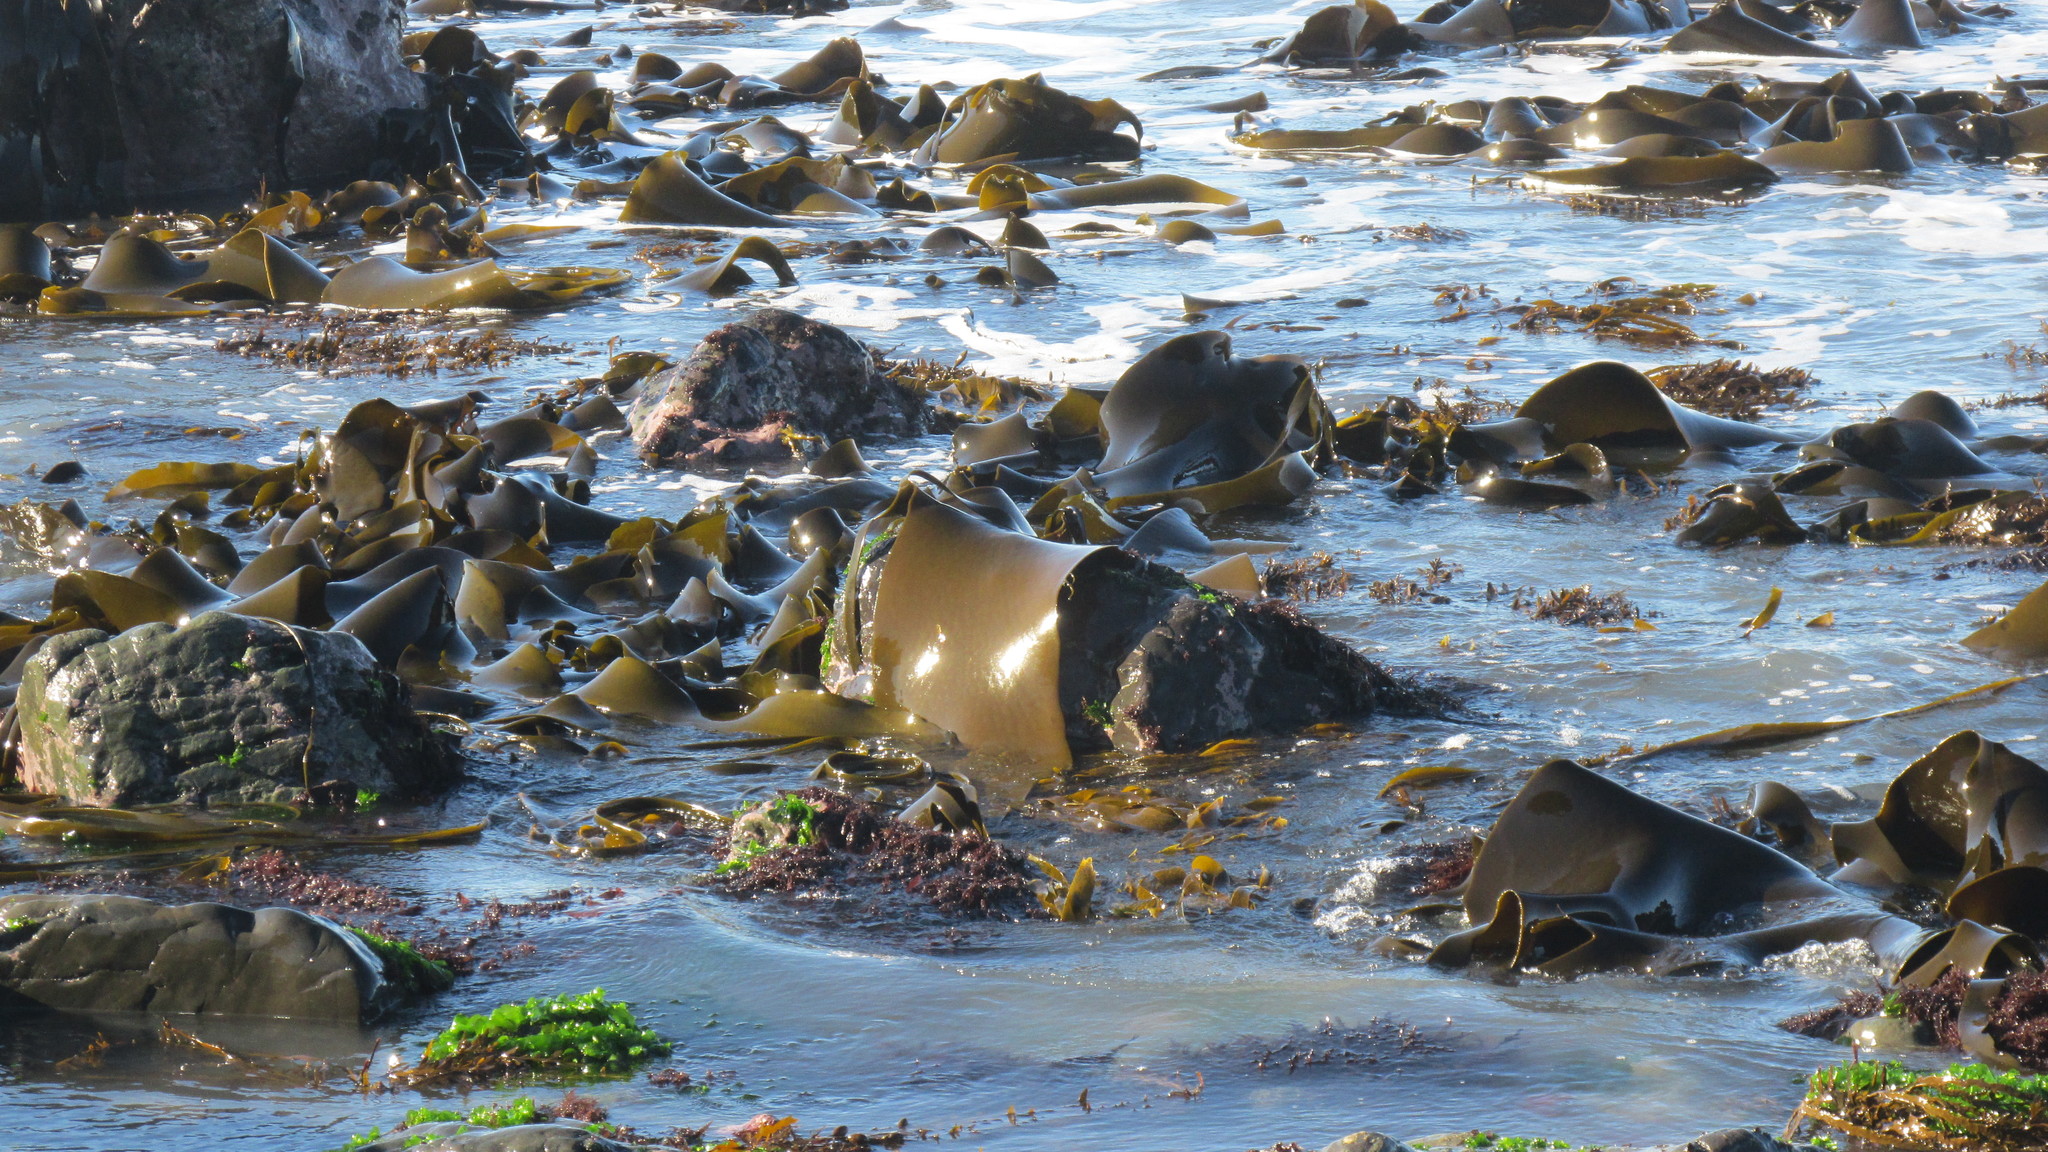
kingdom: Chromista
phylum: Ochrophyta
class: Phaeophyceae
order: Fucales
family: Durvillaeaceae
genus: Durvillaea
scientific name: Durvillaea antarctica
